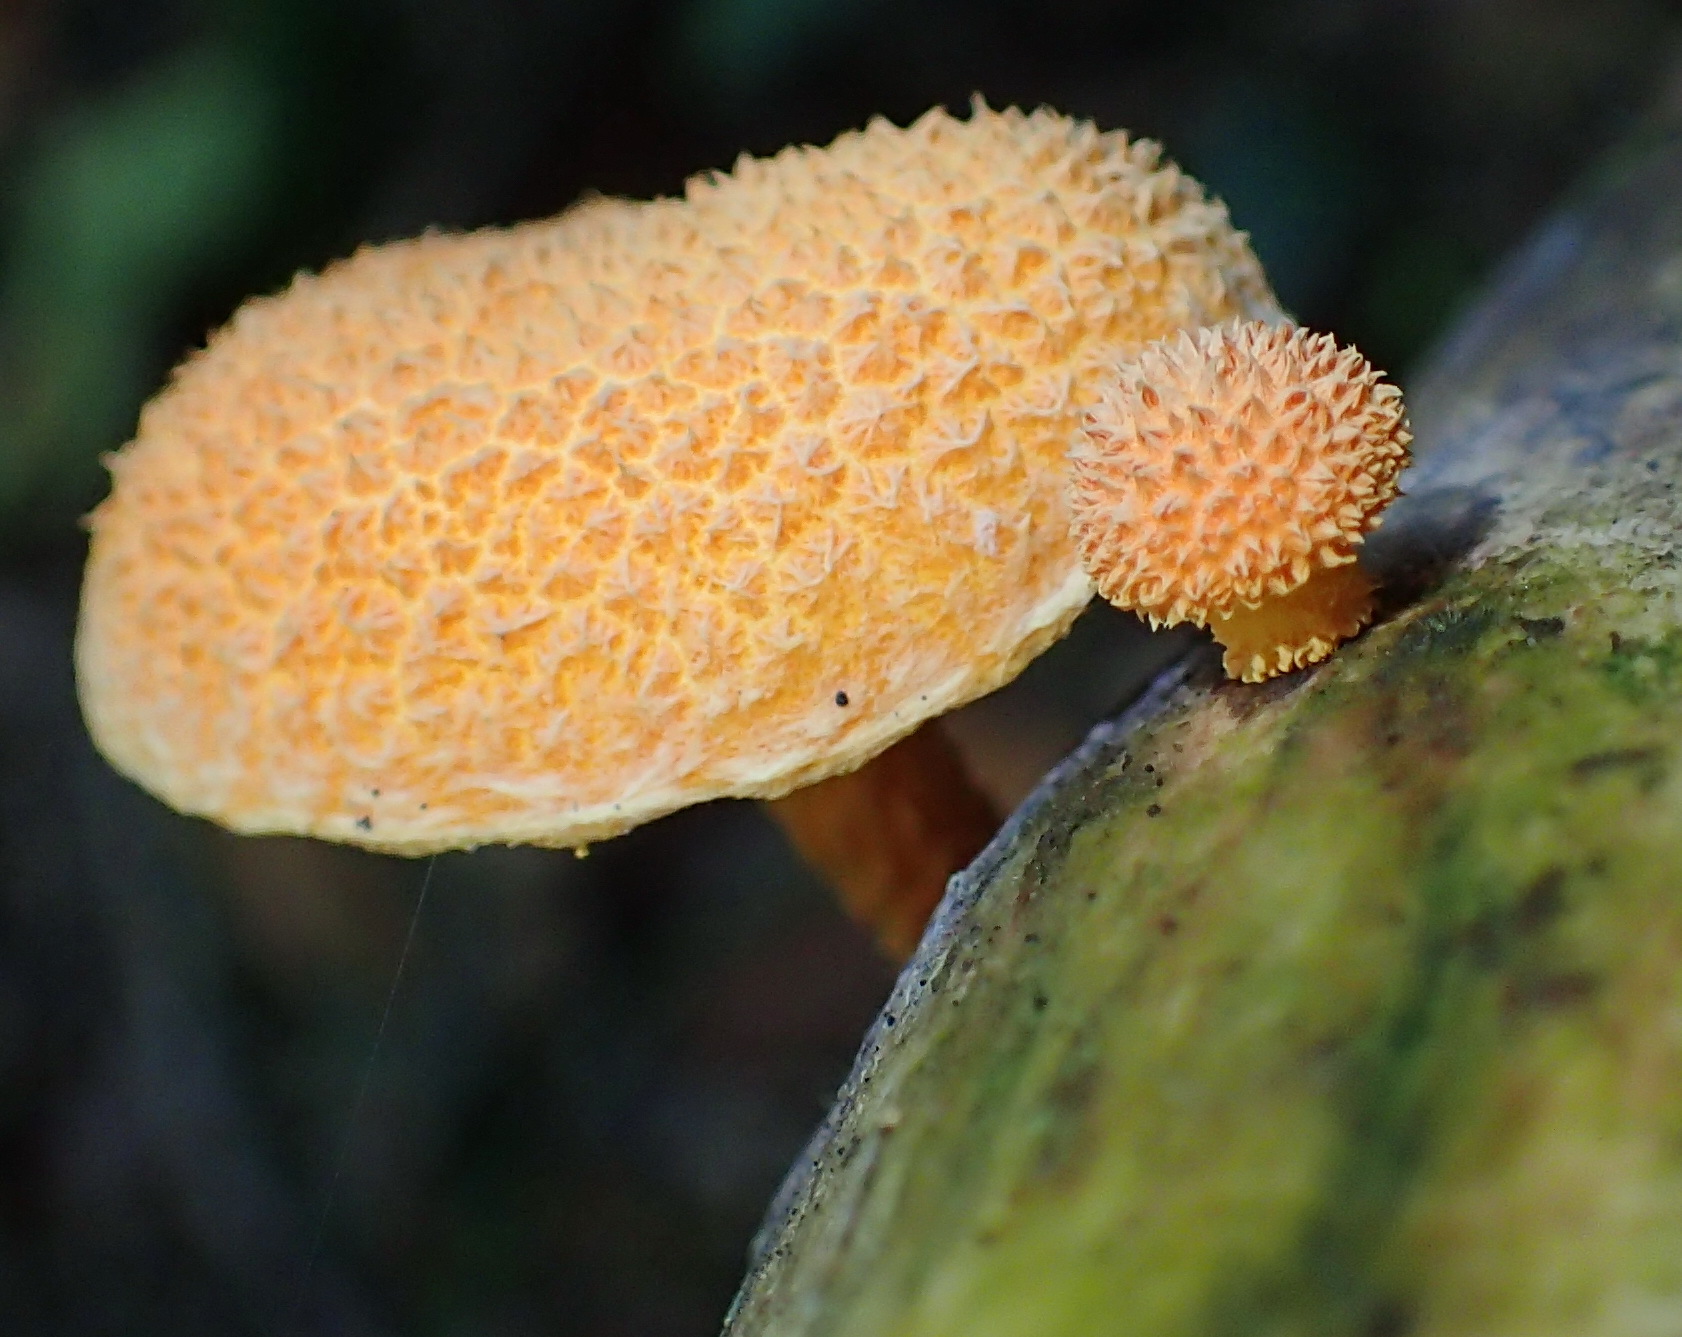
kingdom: Fungi
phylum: Basidiomycota
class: Agaricomycetes
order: Agaricales
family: Physalacriaceae
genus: Cyptotrama
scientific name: Cyptotrama asprata
